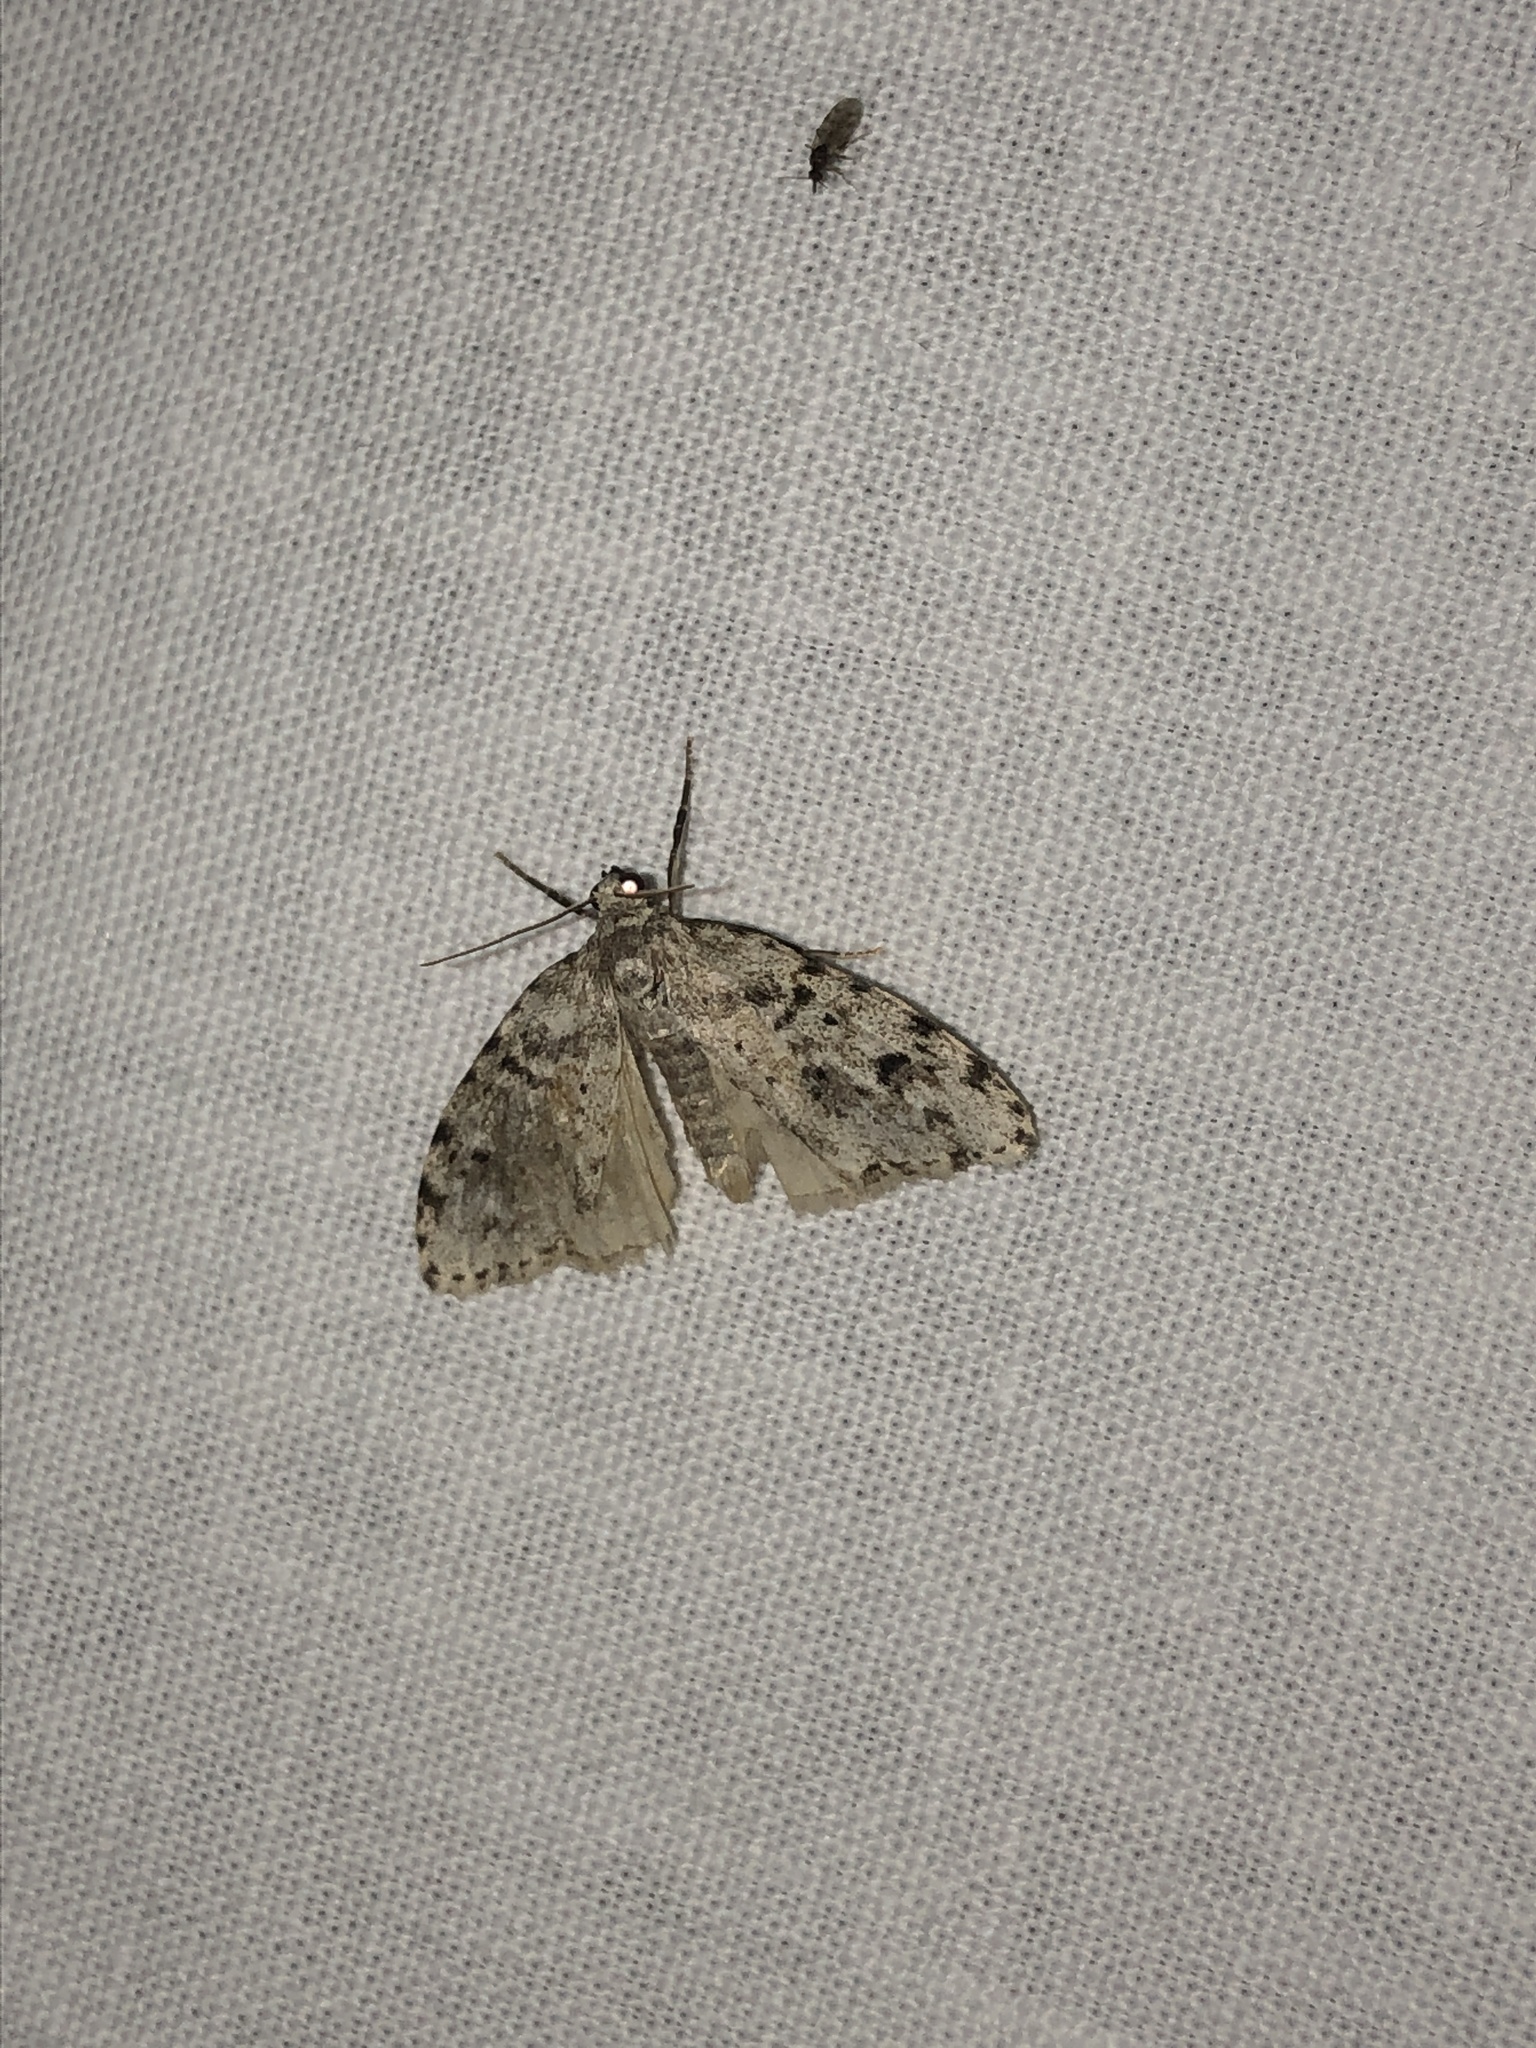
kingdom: Animalia
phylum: Arthropoda
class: Insecta
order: Lepidoptera
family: Erebidae
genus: Clemensia
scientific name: Clemensia umbrata
